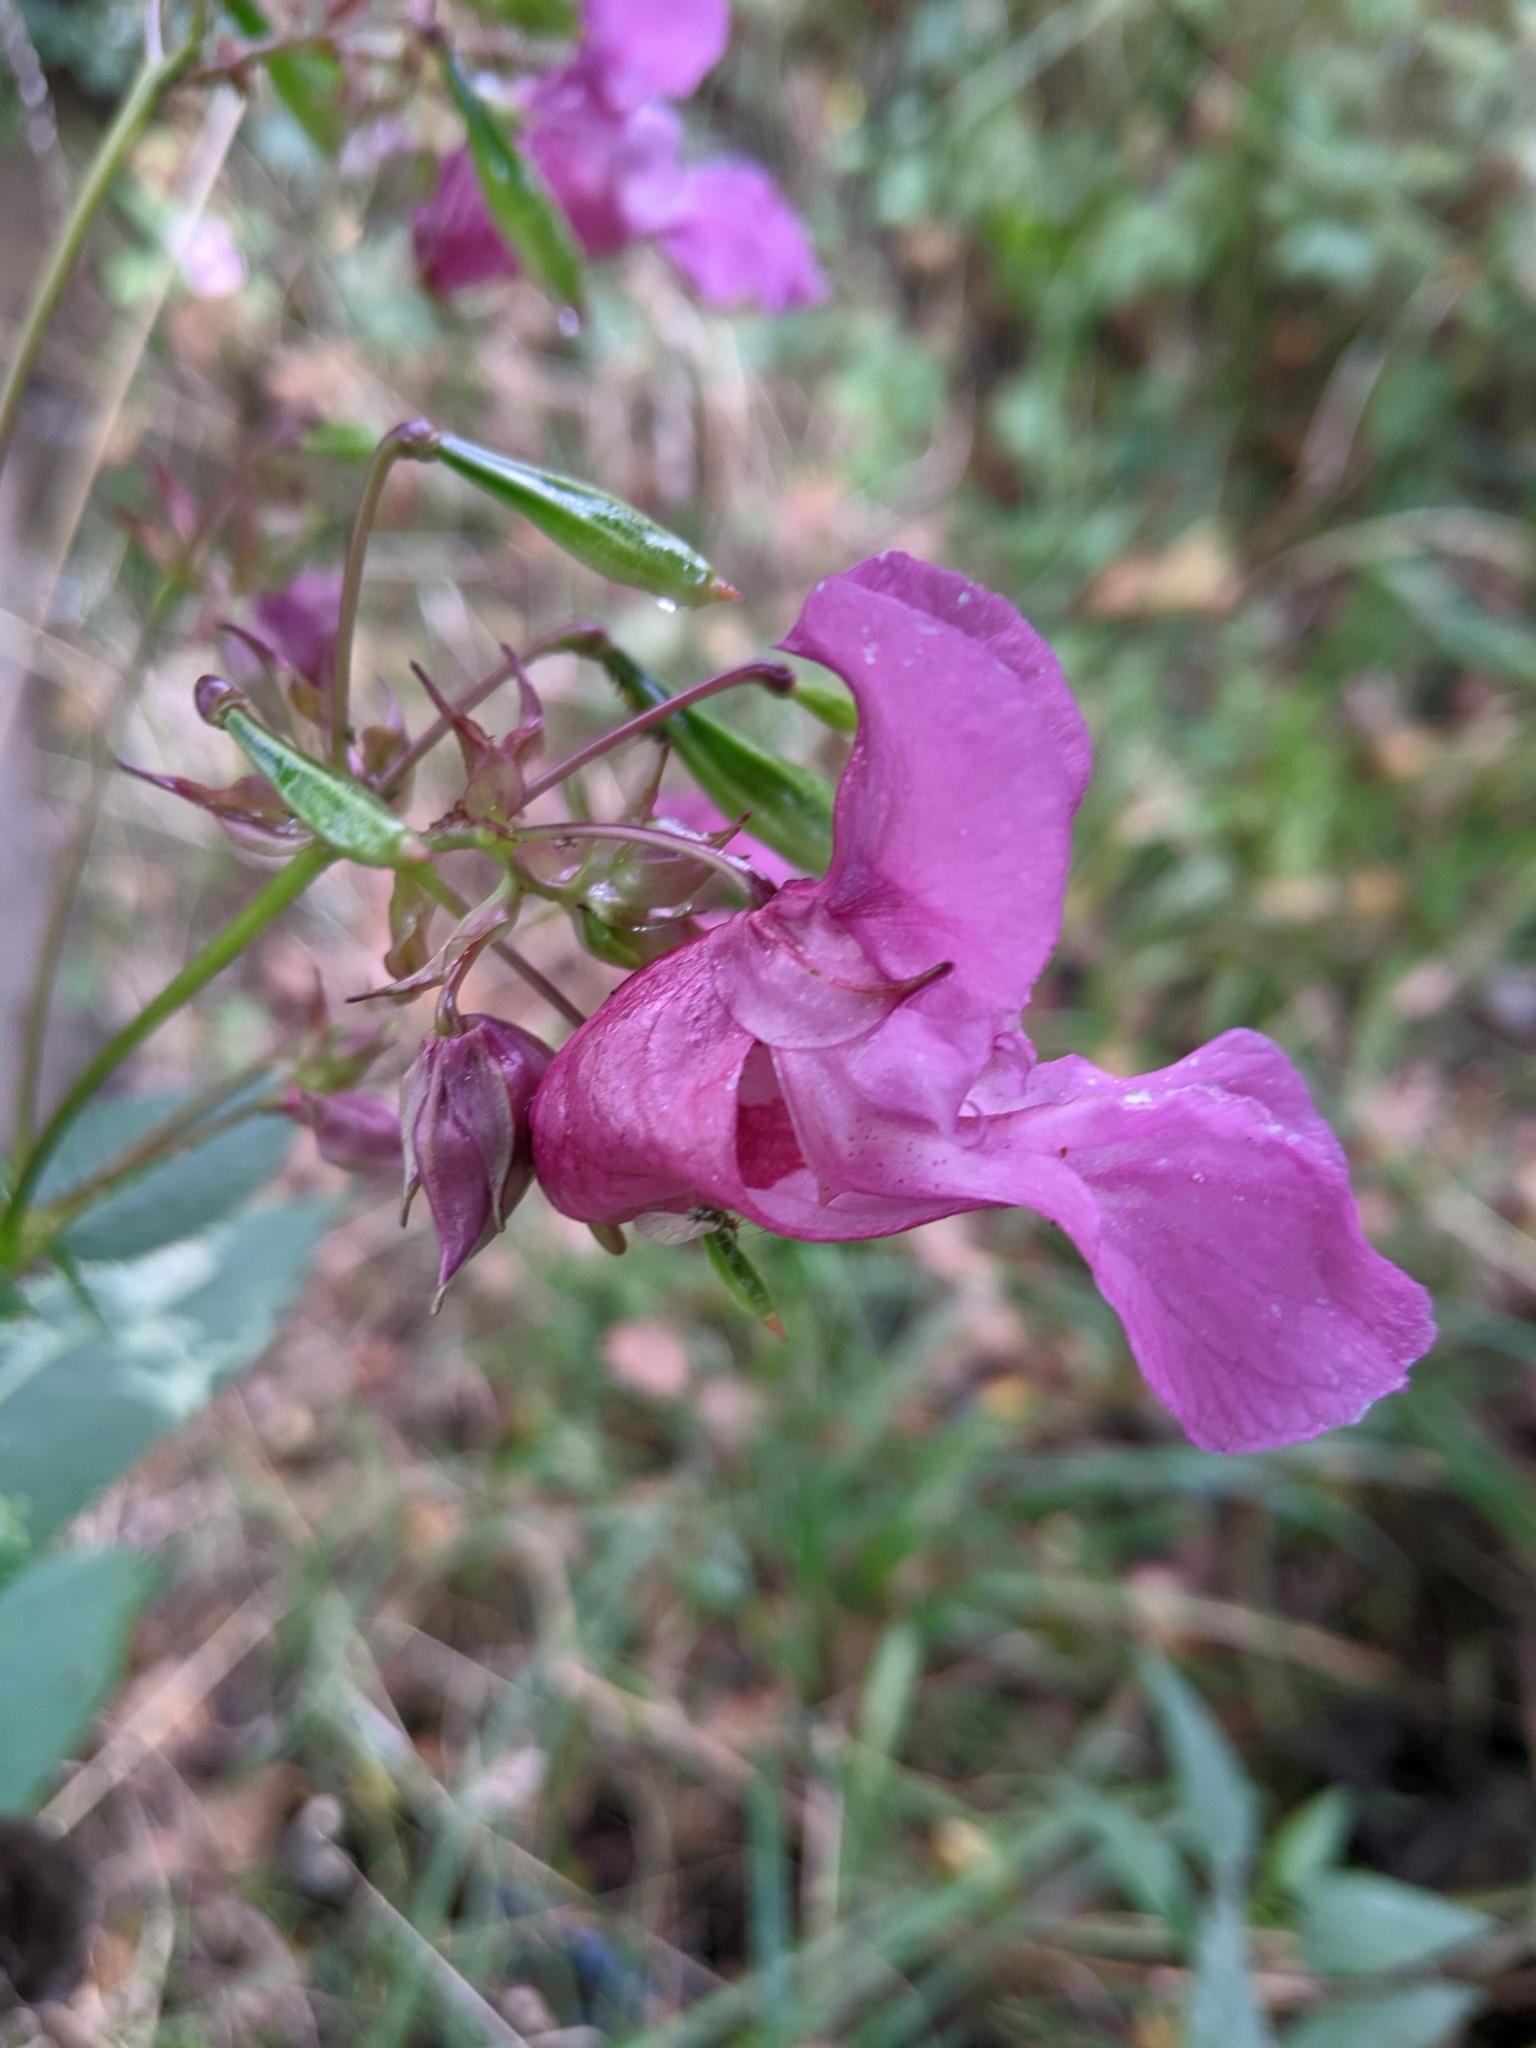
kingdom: Plantae
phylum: Tracheophyta
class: Magnoliopsida
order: Ericales
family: Balsaminaceae
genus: Impatiens
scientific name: Impatiens glandulifera
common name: Himalayan balsam
